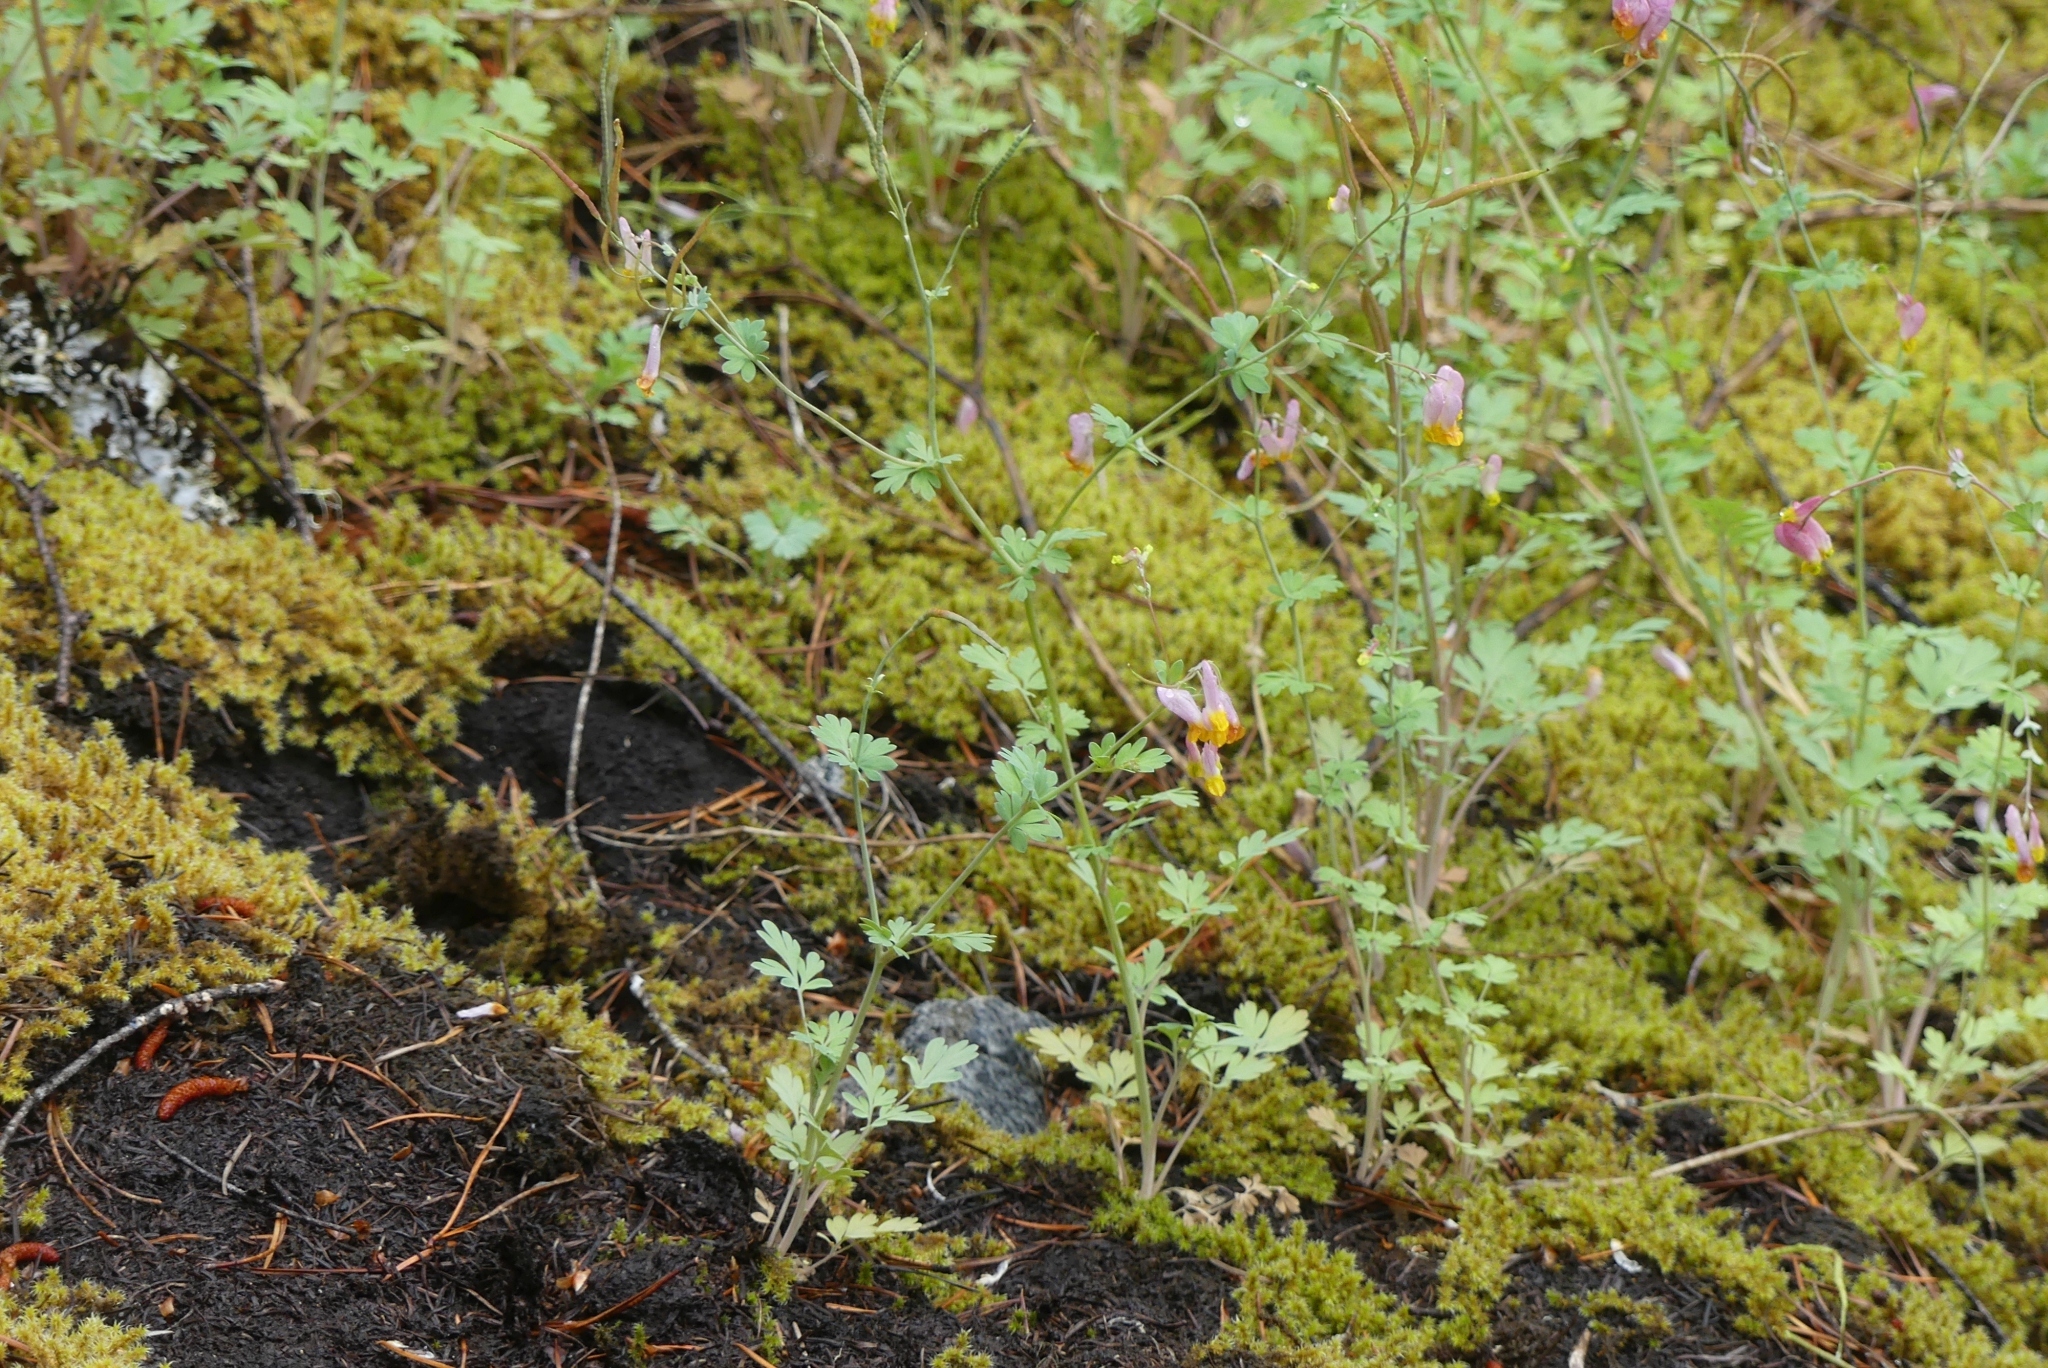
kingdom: Plantae
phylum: Tracheophyta
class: Magnoliopsida
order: Ranunculales
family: Papaveraceae
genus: Capnoides
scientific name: Capnoides sempervirens
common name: Rock harlequin
